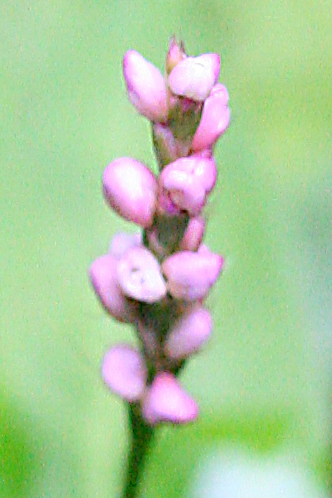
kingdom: Plantae
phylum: Tracheophyta
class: Magnoliopsida
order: Caryophyllales
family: Polygonaceae
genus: Persicaria
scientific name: Persicaria longiseta
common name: Bristly lady's-thumb
